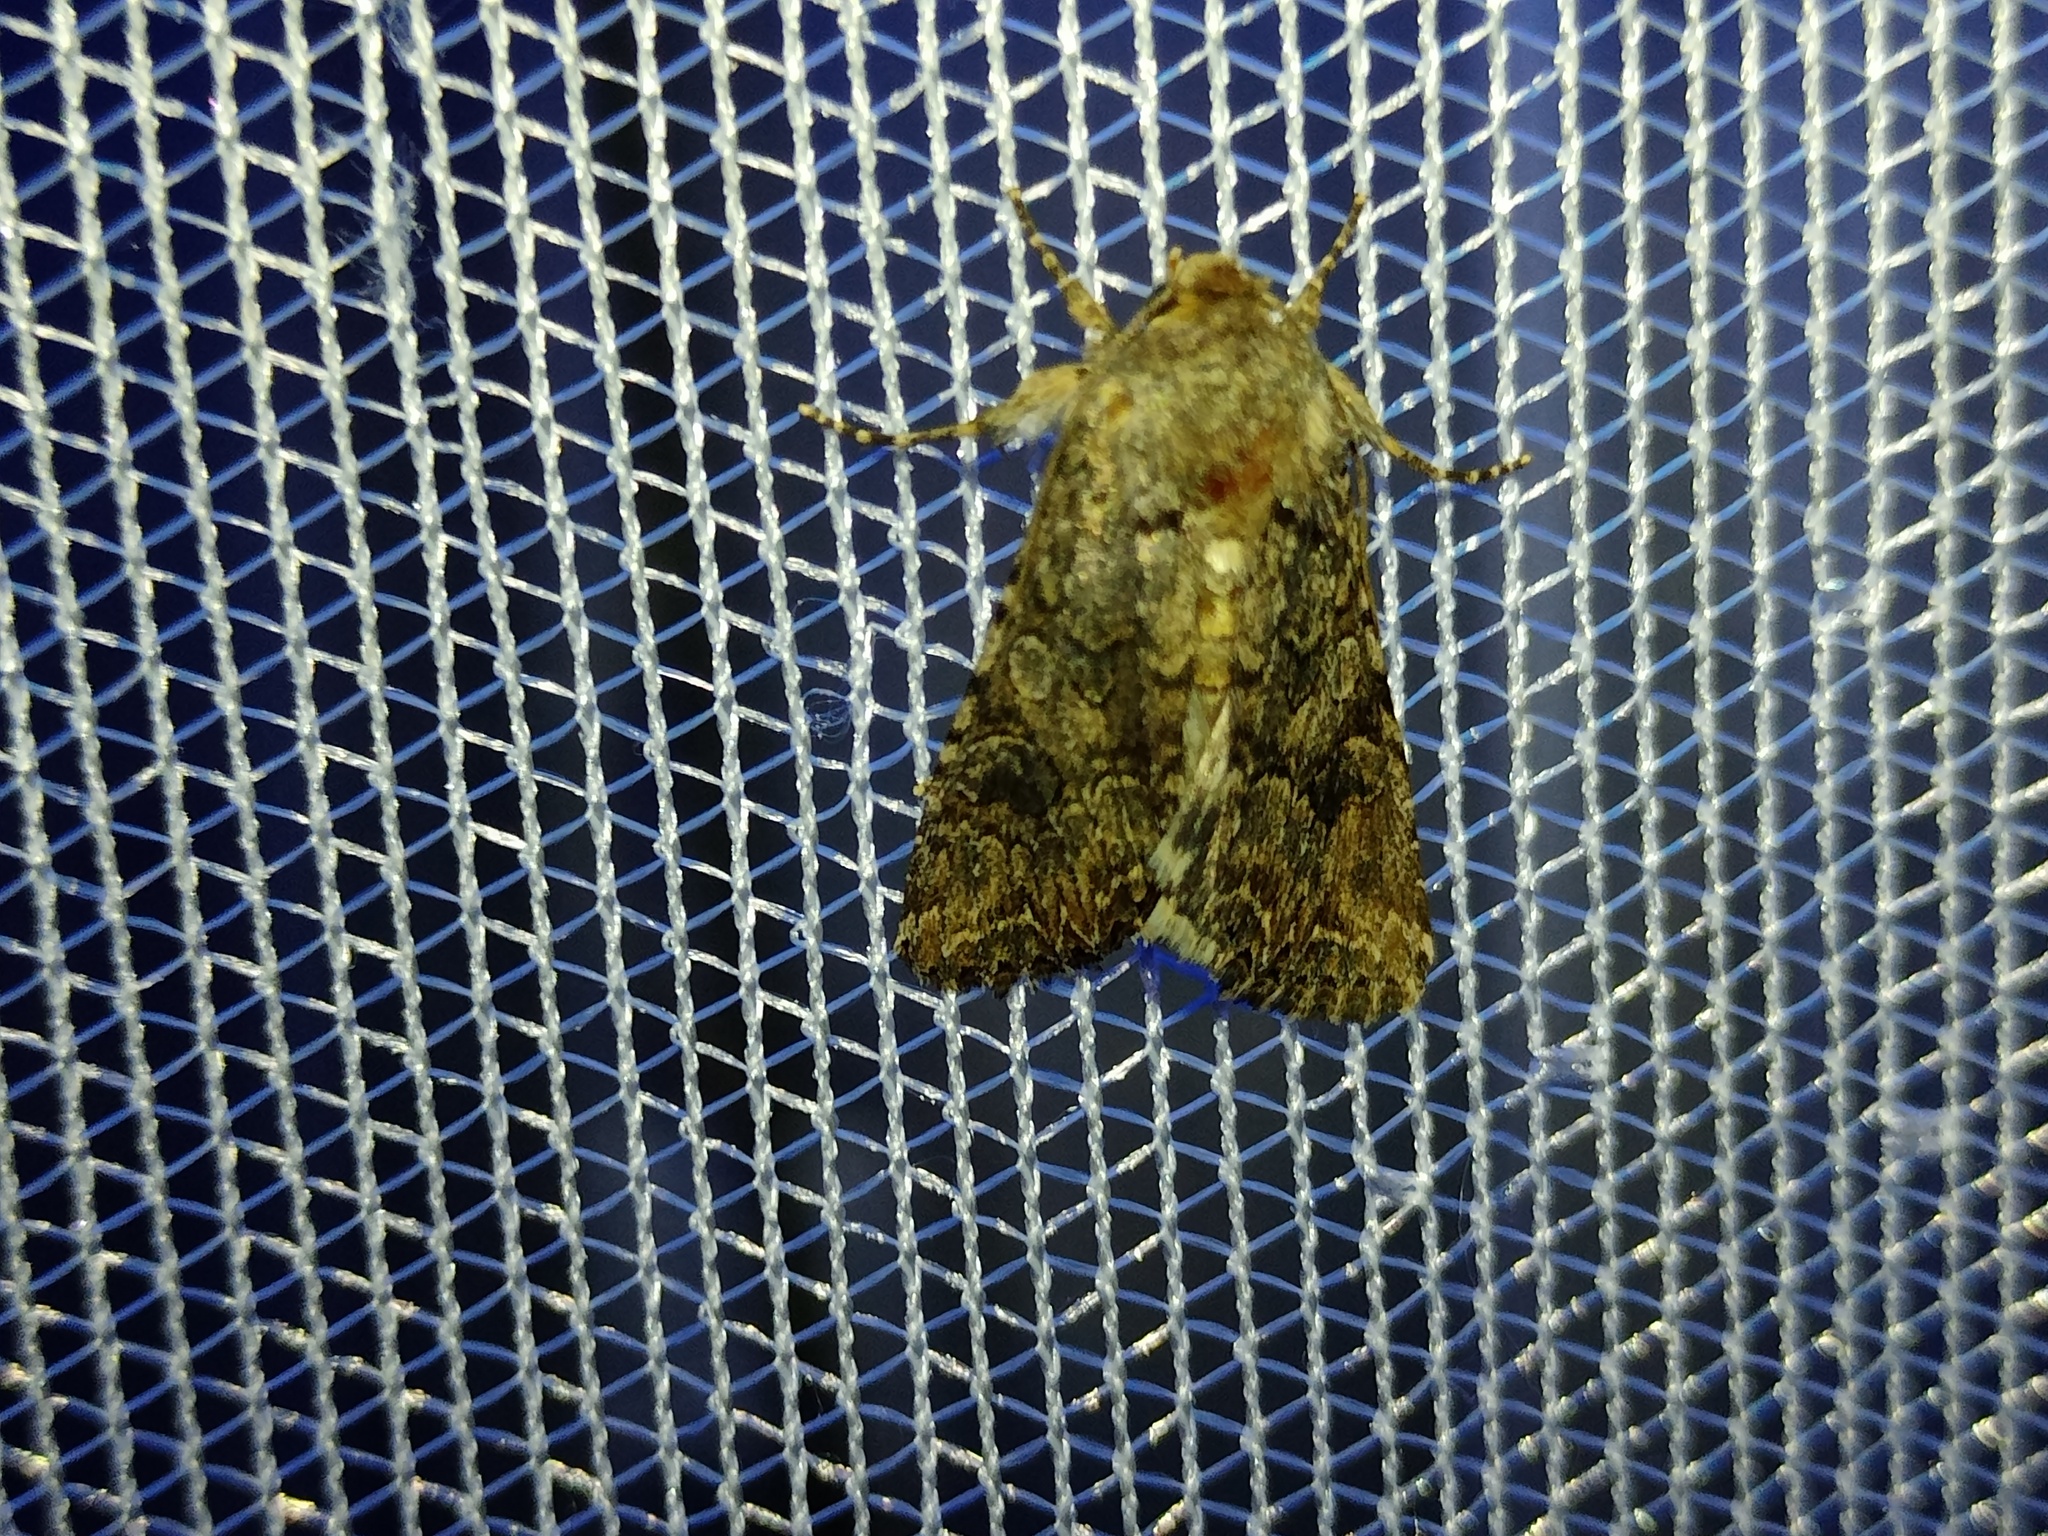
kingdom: Animalia
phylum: Arthropoda
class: Insecta
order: Lepidoptera
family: Noctuidae
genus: Anarta
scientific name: Anarta trifolii
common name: Clover cutworm moth
